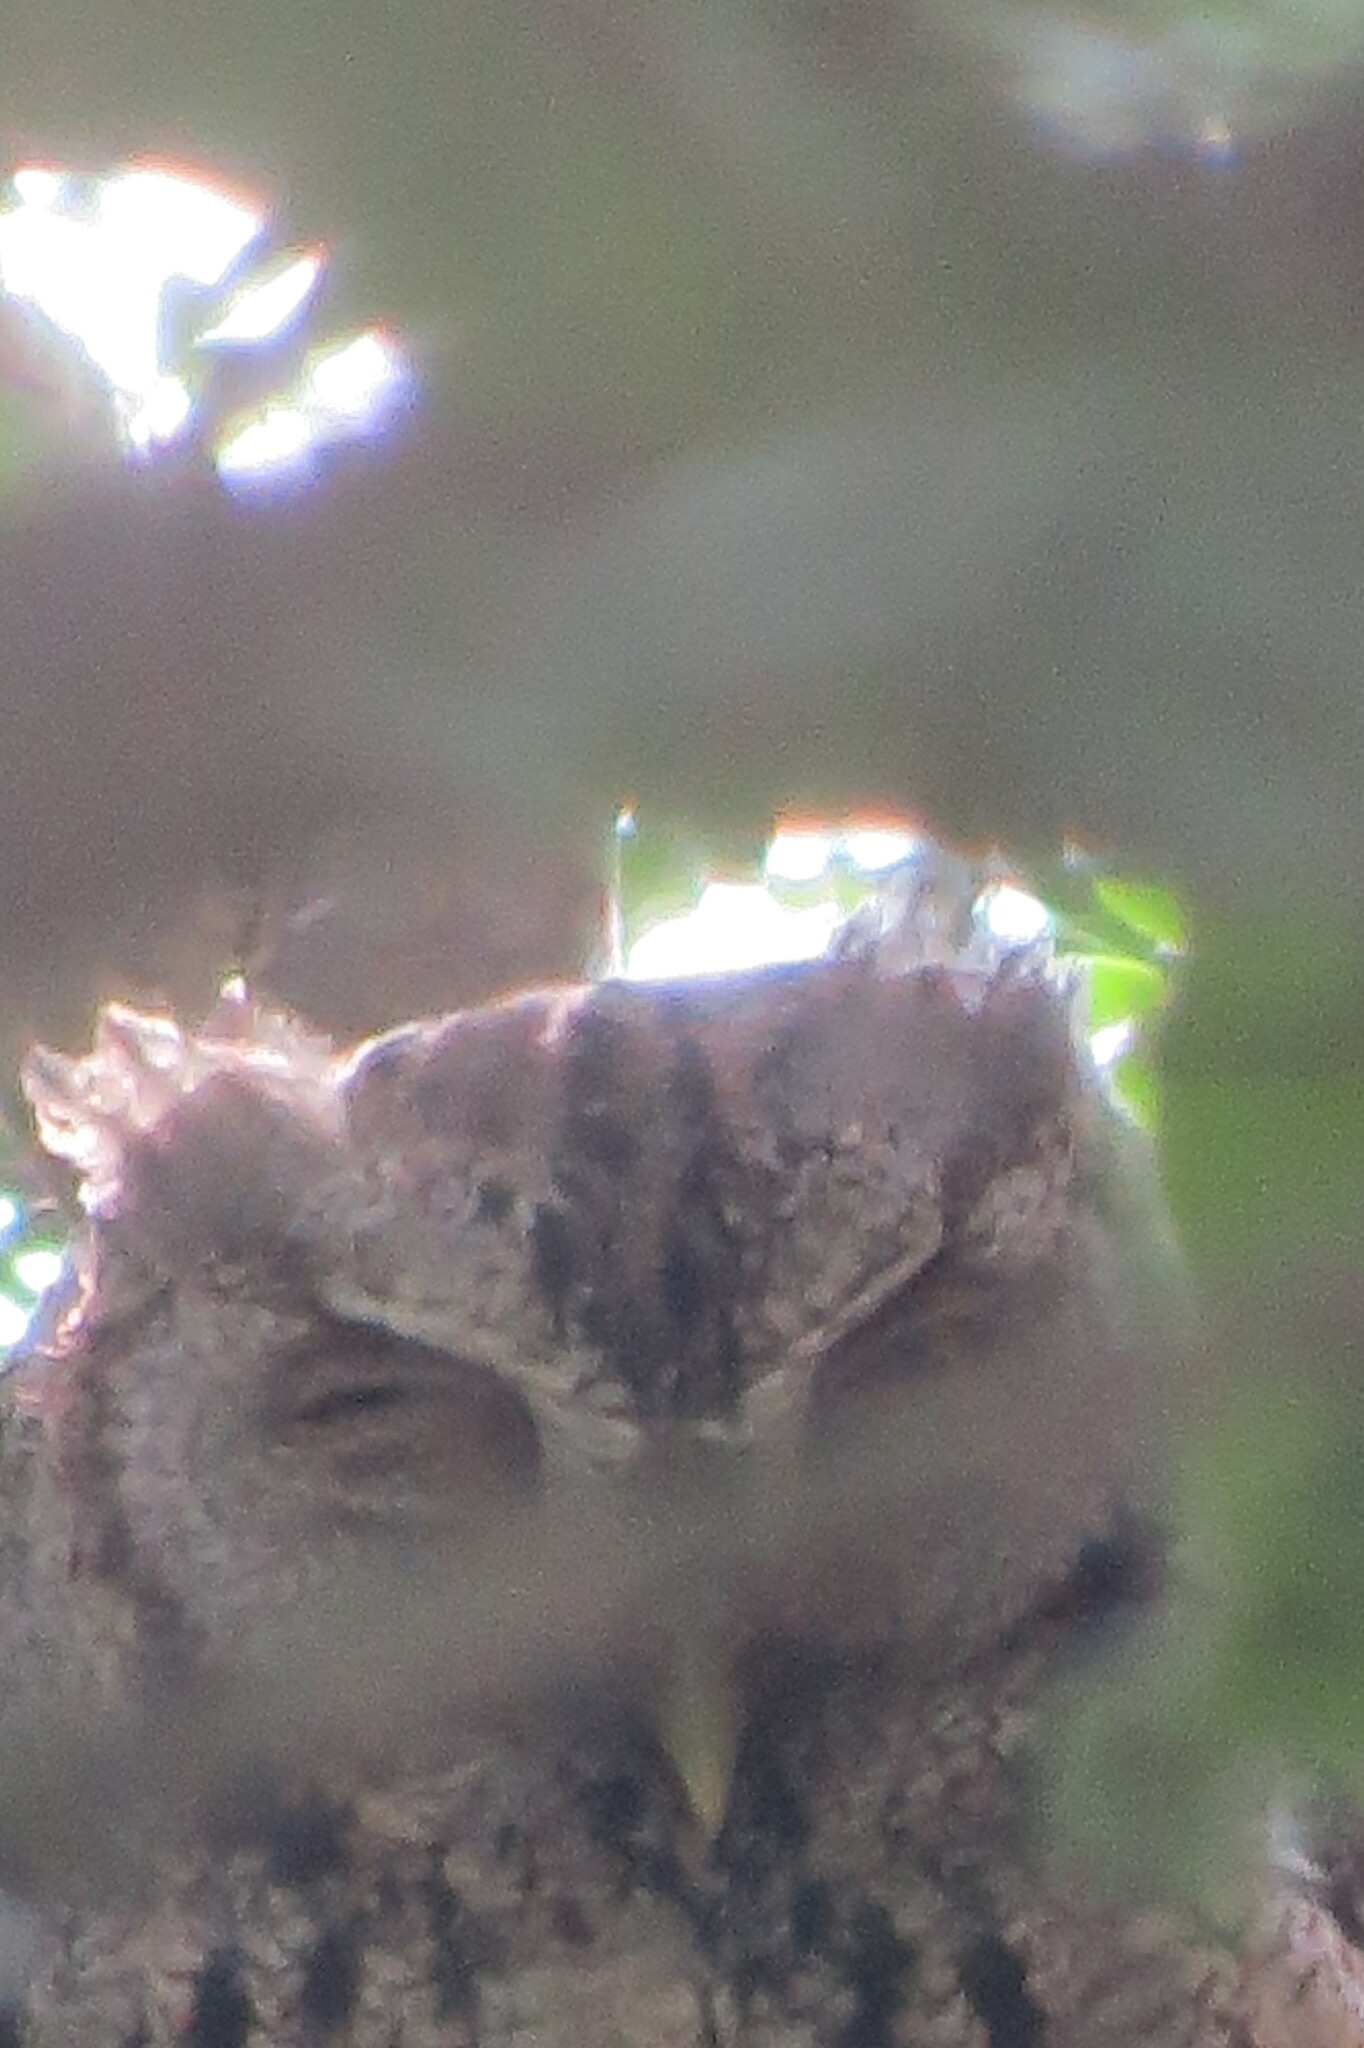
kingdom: Animalia
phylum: Chordata
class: Aves
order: Strigiformes
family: Strigidae
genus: Megascops
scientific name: Megascops asio
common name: Eastern screech-owl
